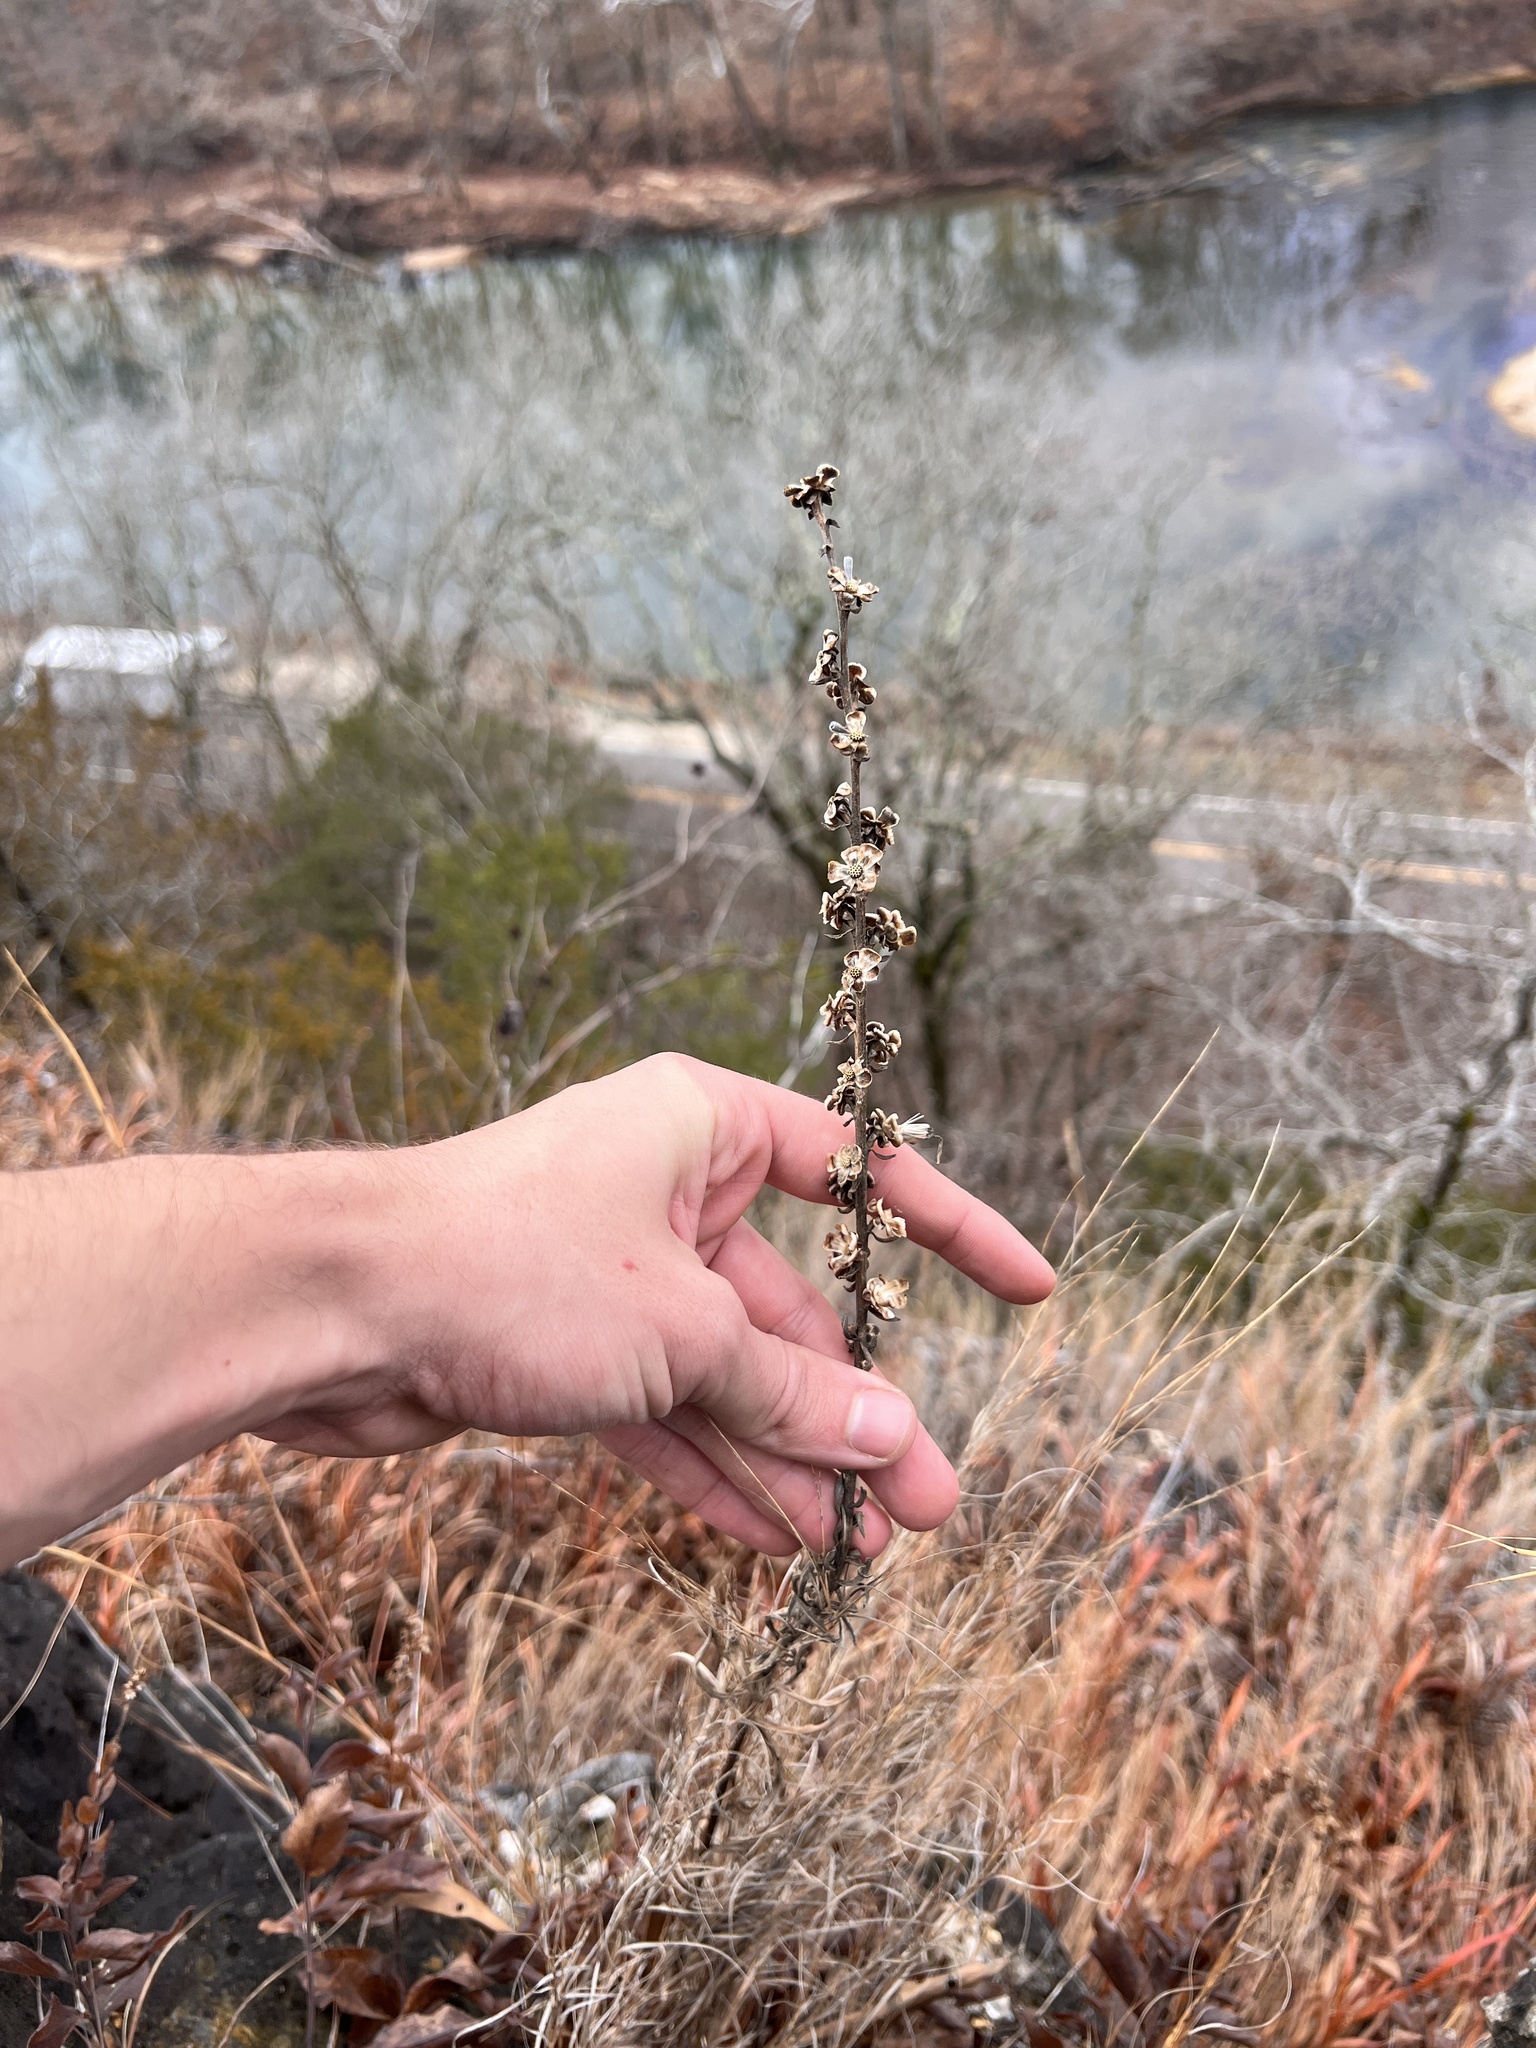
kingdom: Plantae
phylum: Tracheophyta
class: Magnoliopsida
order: Asterales
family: Asteraceae
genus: Liatris
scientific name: Liatris aspera
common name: Lacerate blazing-star
